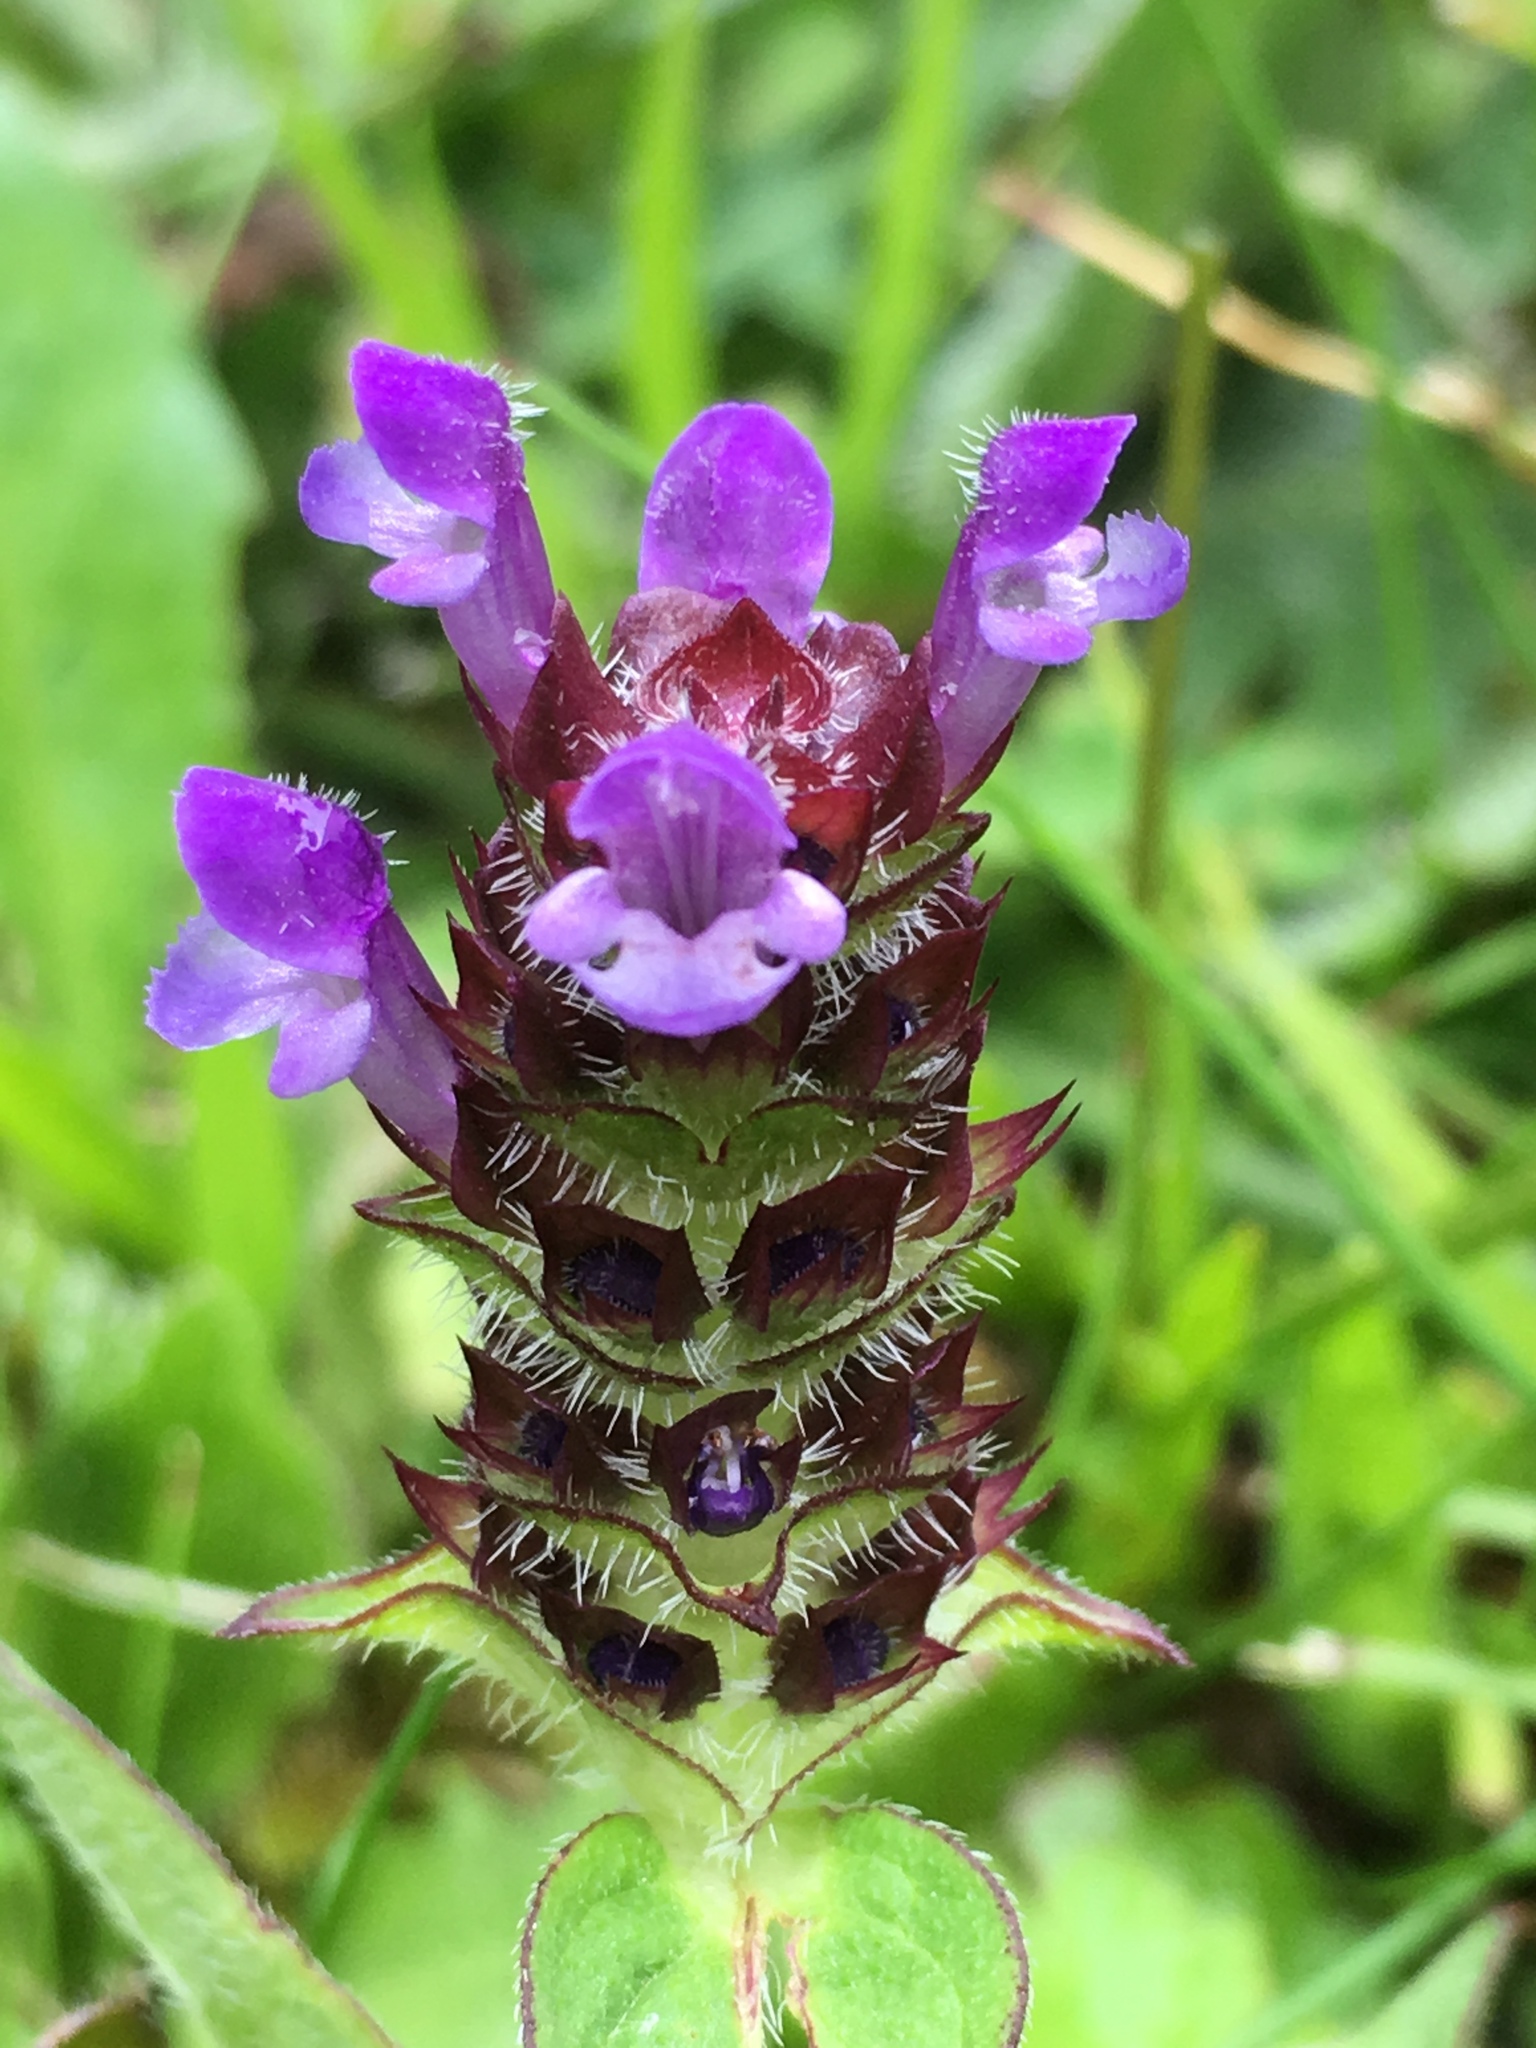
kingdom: Plantae
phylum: Tracheophyta
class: Magnoliopsida
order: Lamiales
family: Lamiaceae
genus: Prunella
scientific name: Prunella vulgaris
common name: Heal-all
